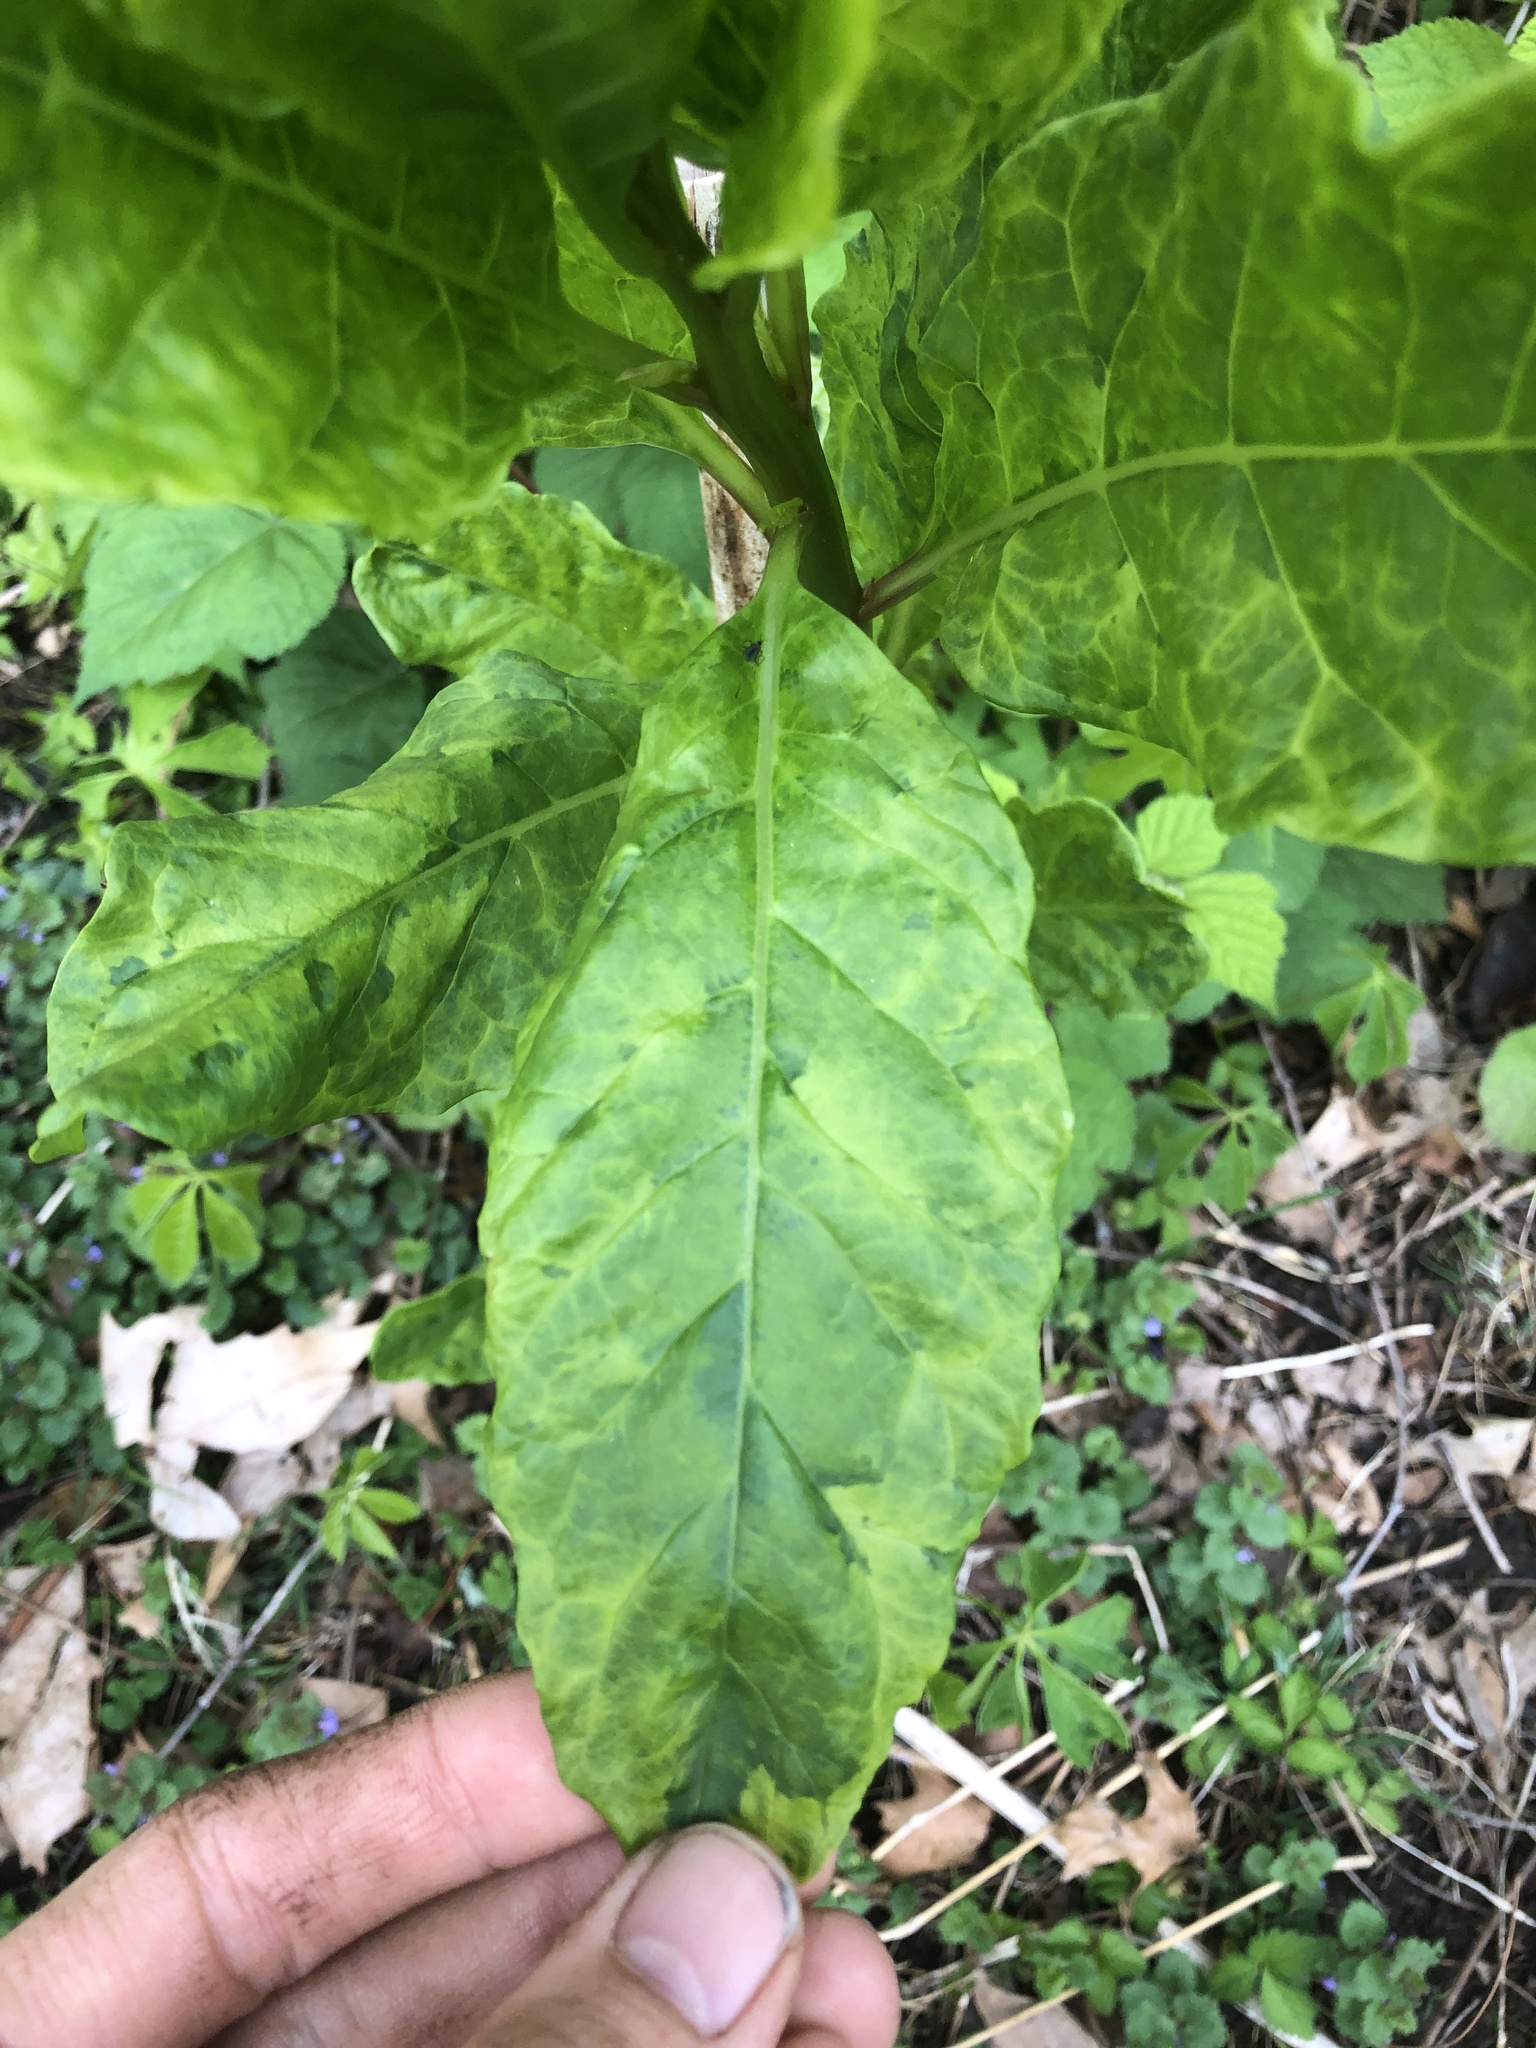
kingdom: Viruses
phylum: Pisuviricota
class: Stelpaviricetes
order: Patatavirales
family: Potyviridae
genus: Potyvirus
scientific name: Potyvirus Pokeweed mosaic virus
